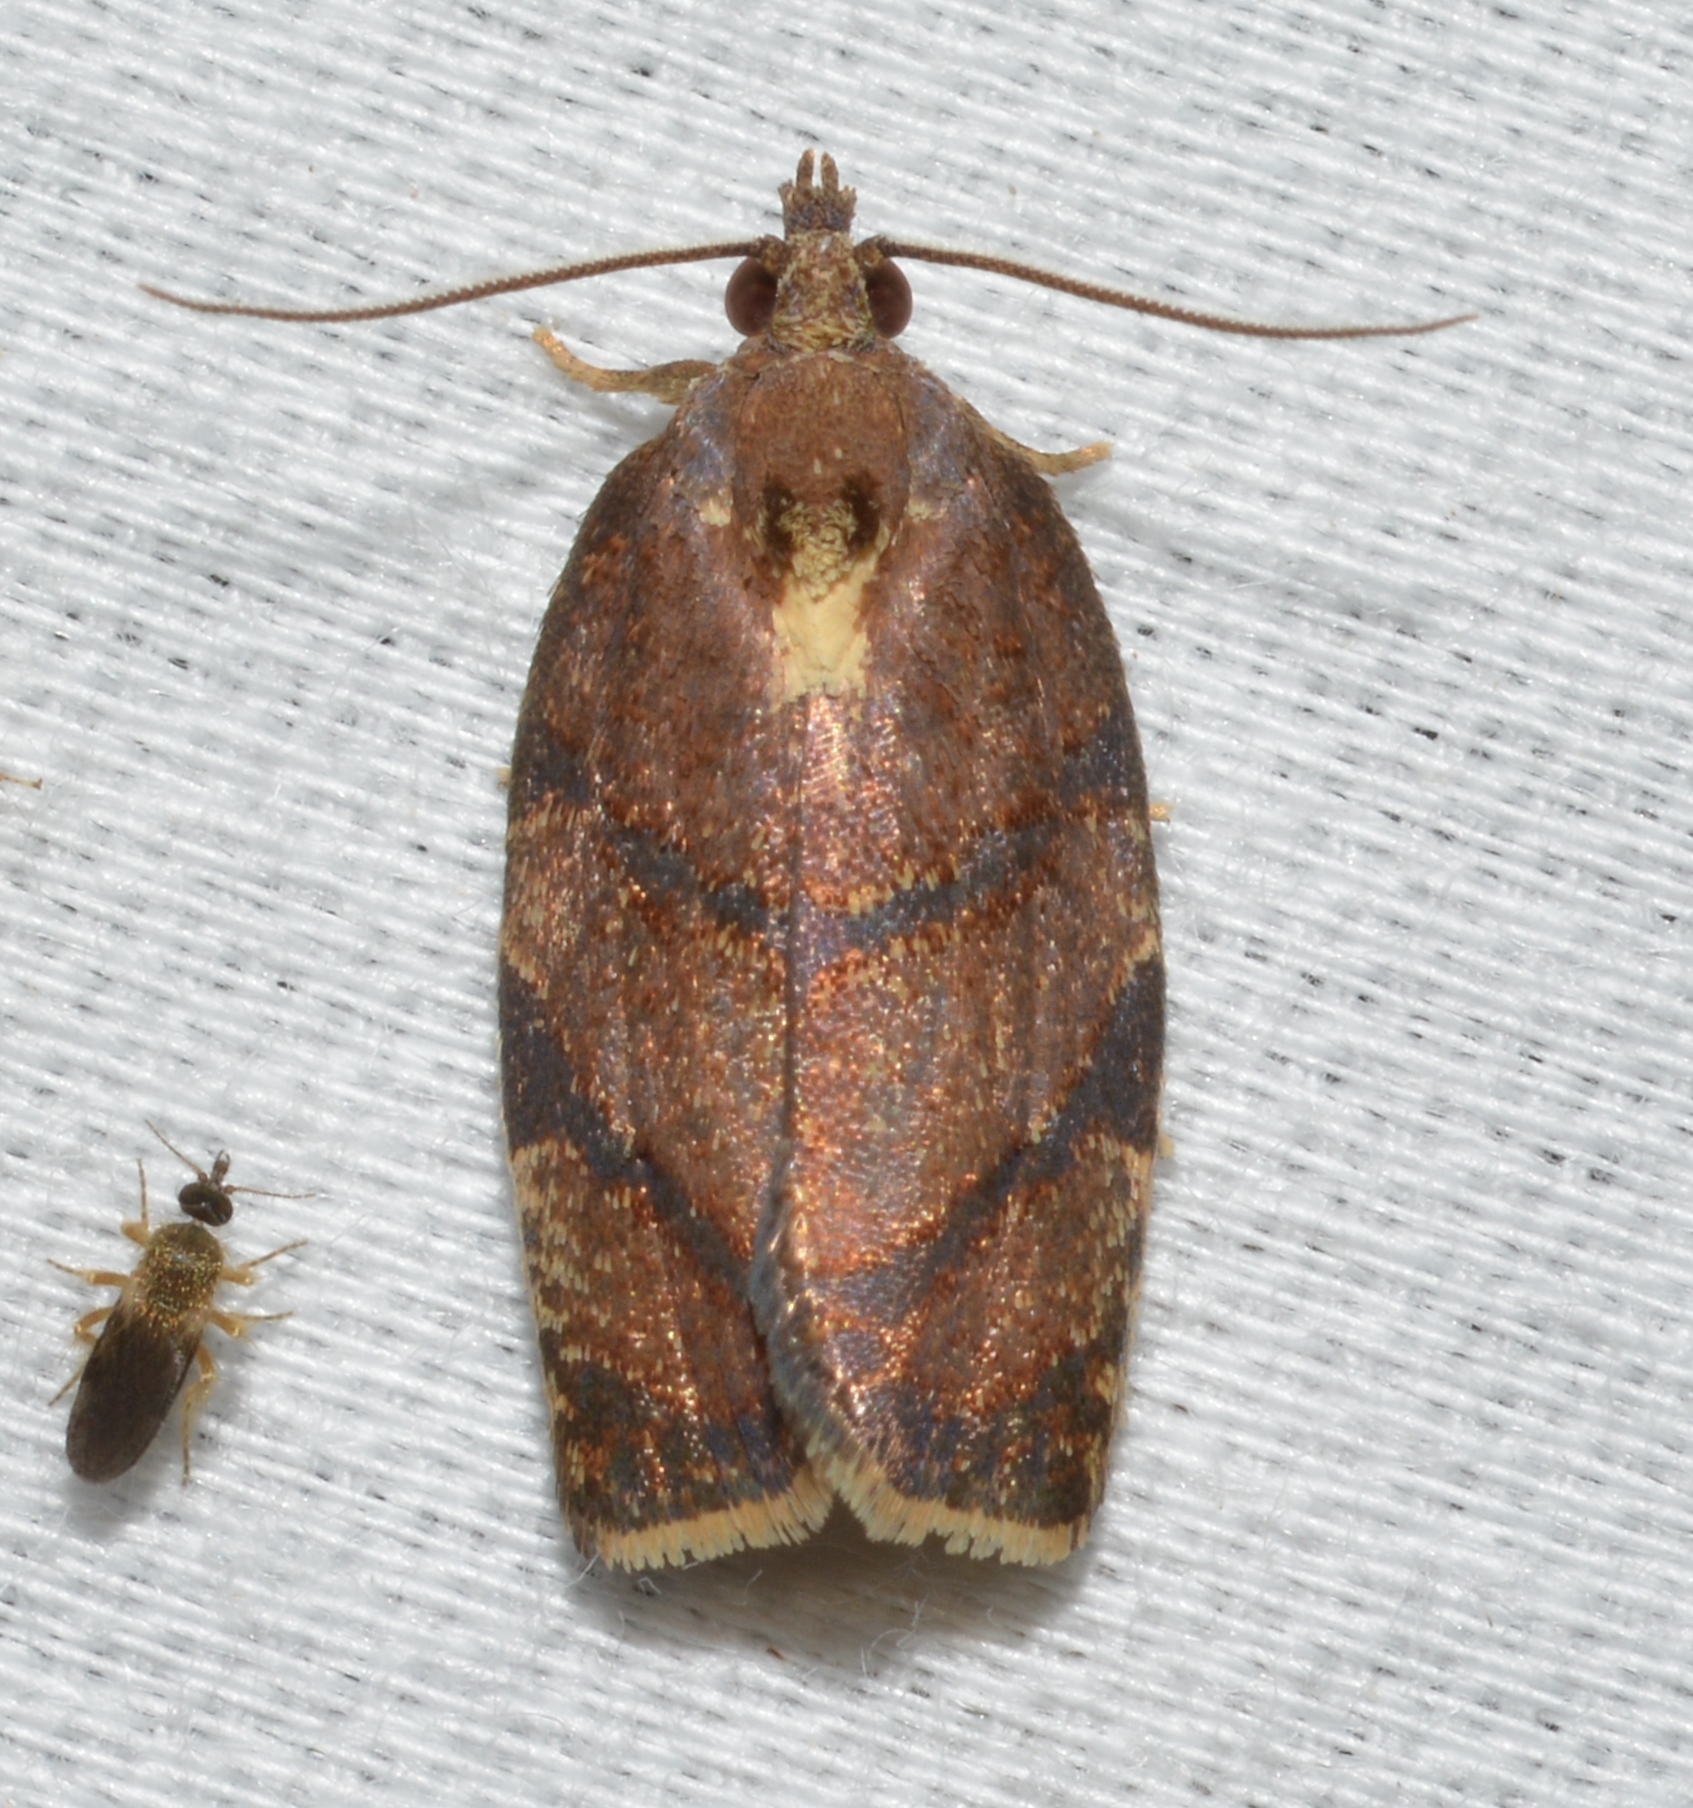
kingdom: Animalia
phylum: Arthropoda
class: Insecta
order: Lepidoptera
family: Tortricidae
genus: Argyrotaenia
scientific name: Argyrotaenia juglandana
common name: Hickory leafroller moth
